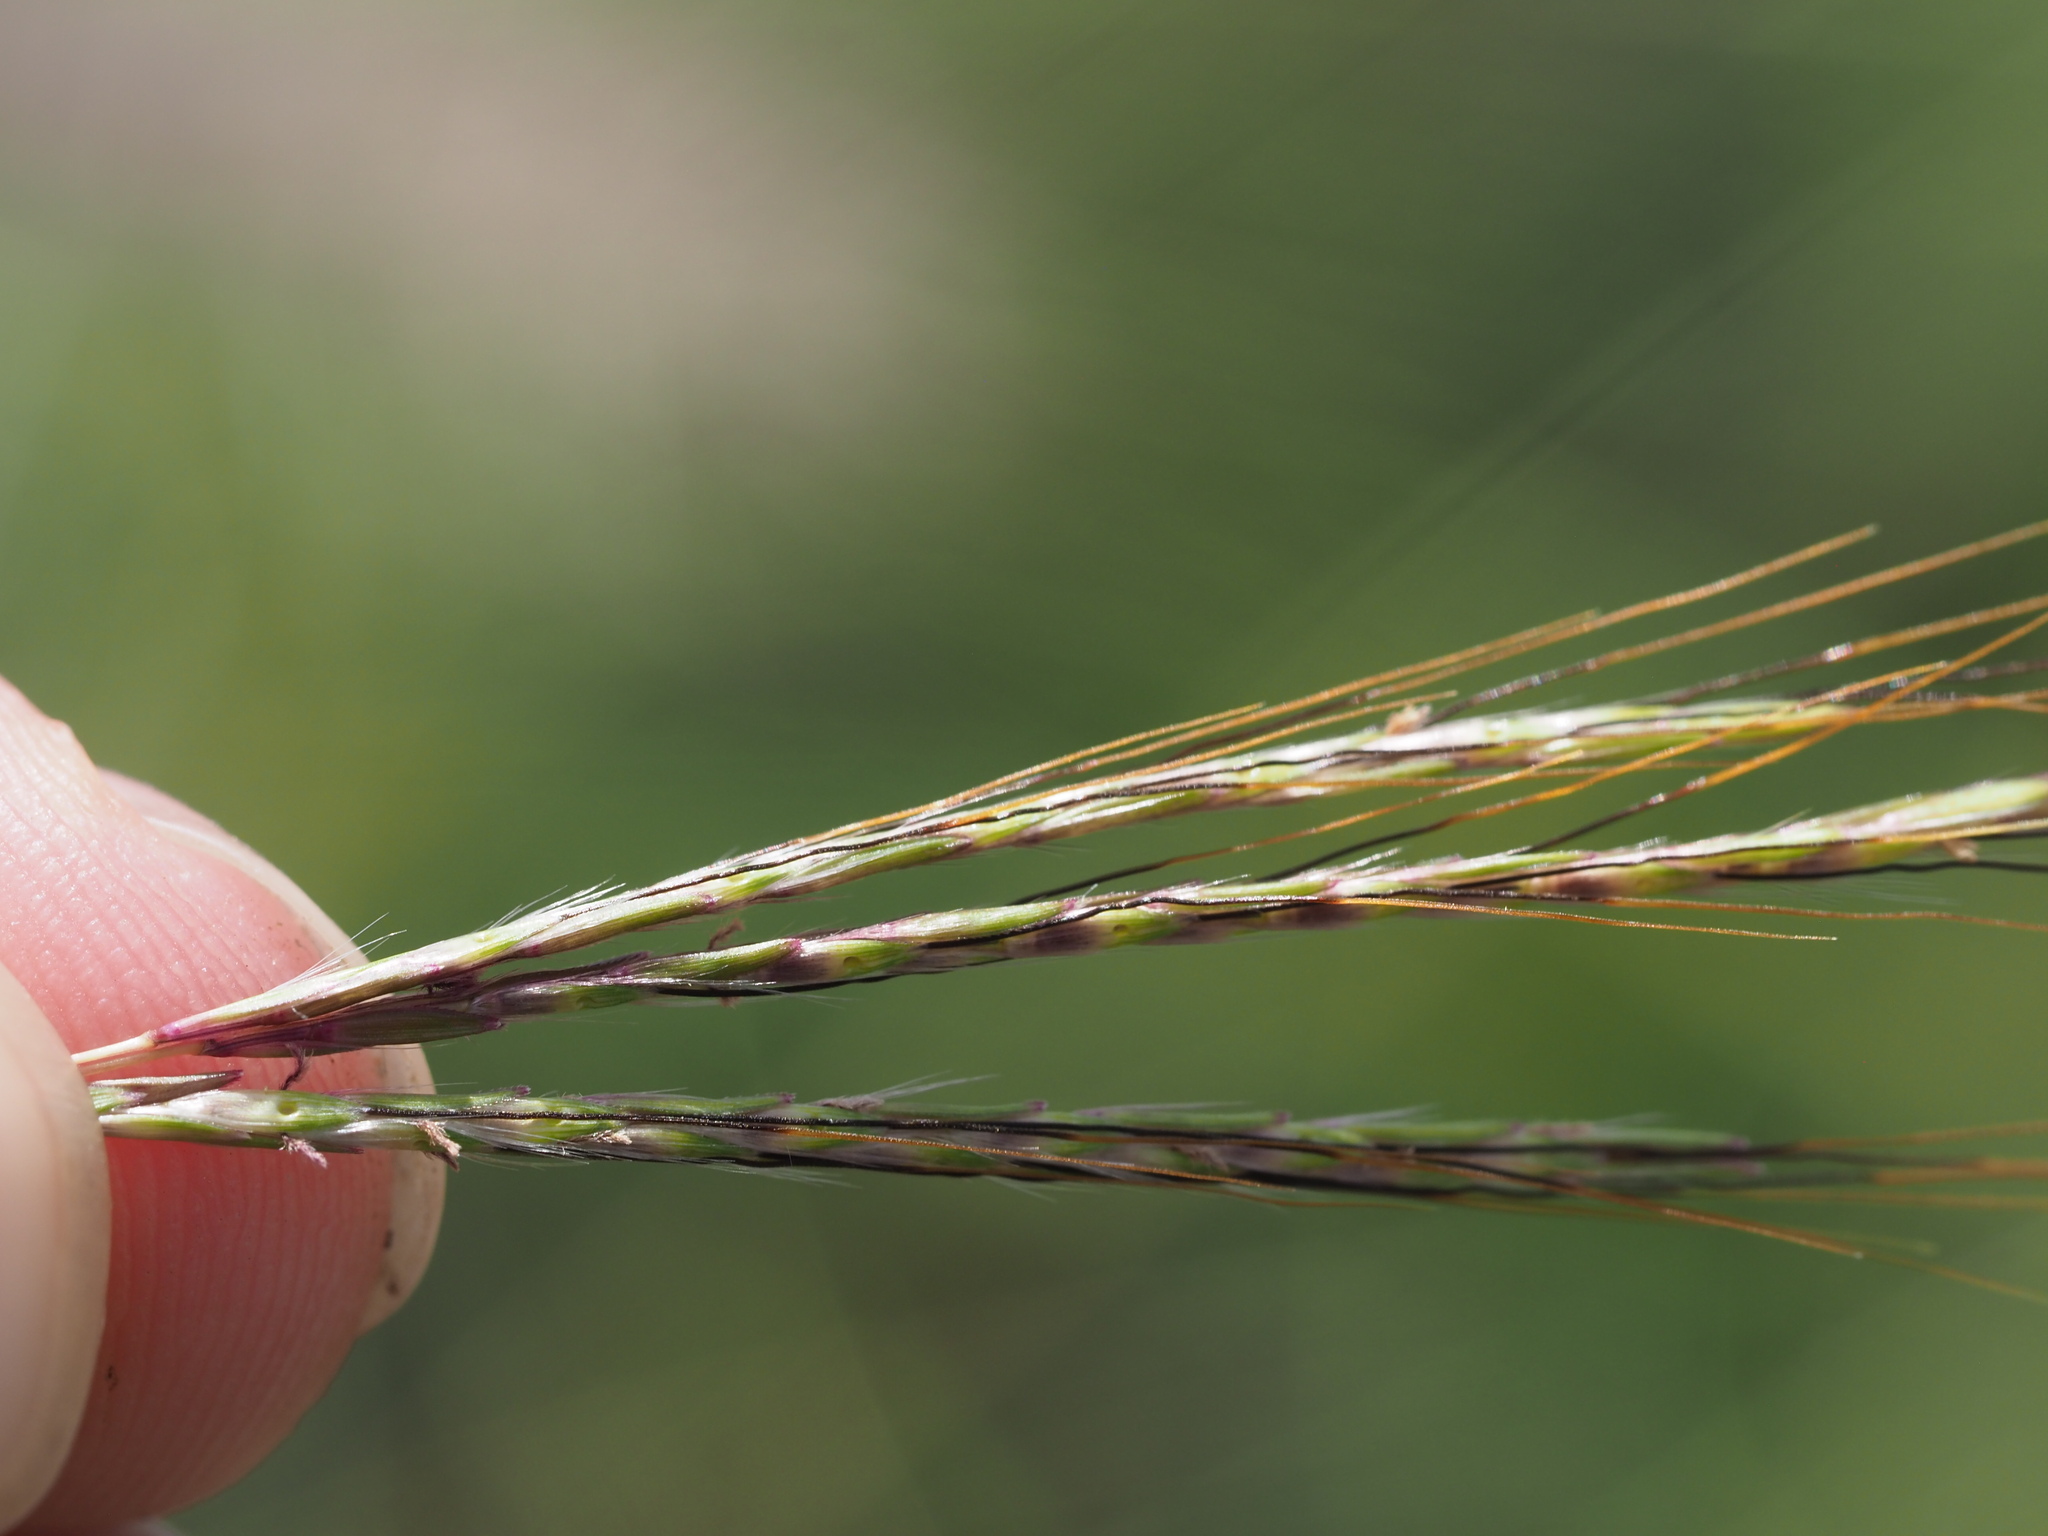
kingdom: Plantae
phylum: Tracheophyta
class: Liliopsida
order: Poales
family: Poaceae
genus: Bothriochloa
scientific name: Bothriochloa pertusa
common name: Pitted beardgrass
